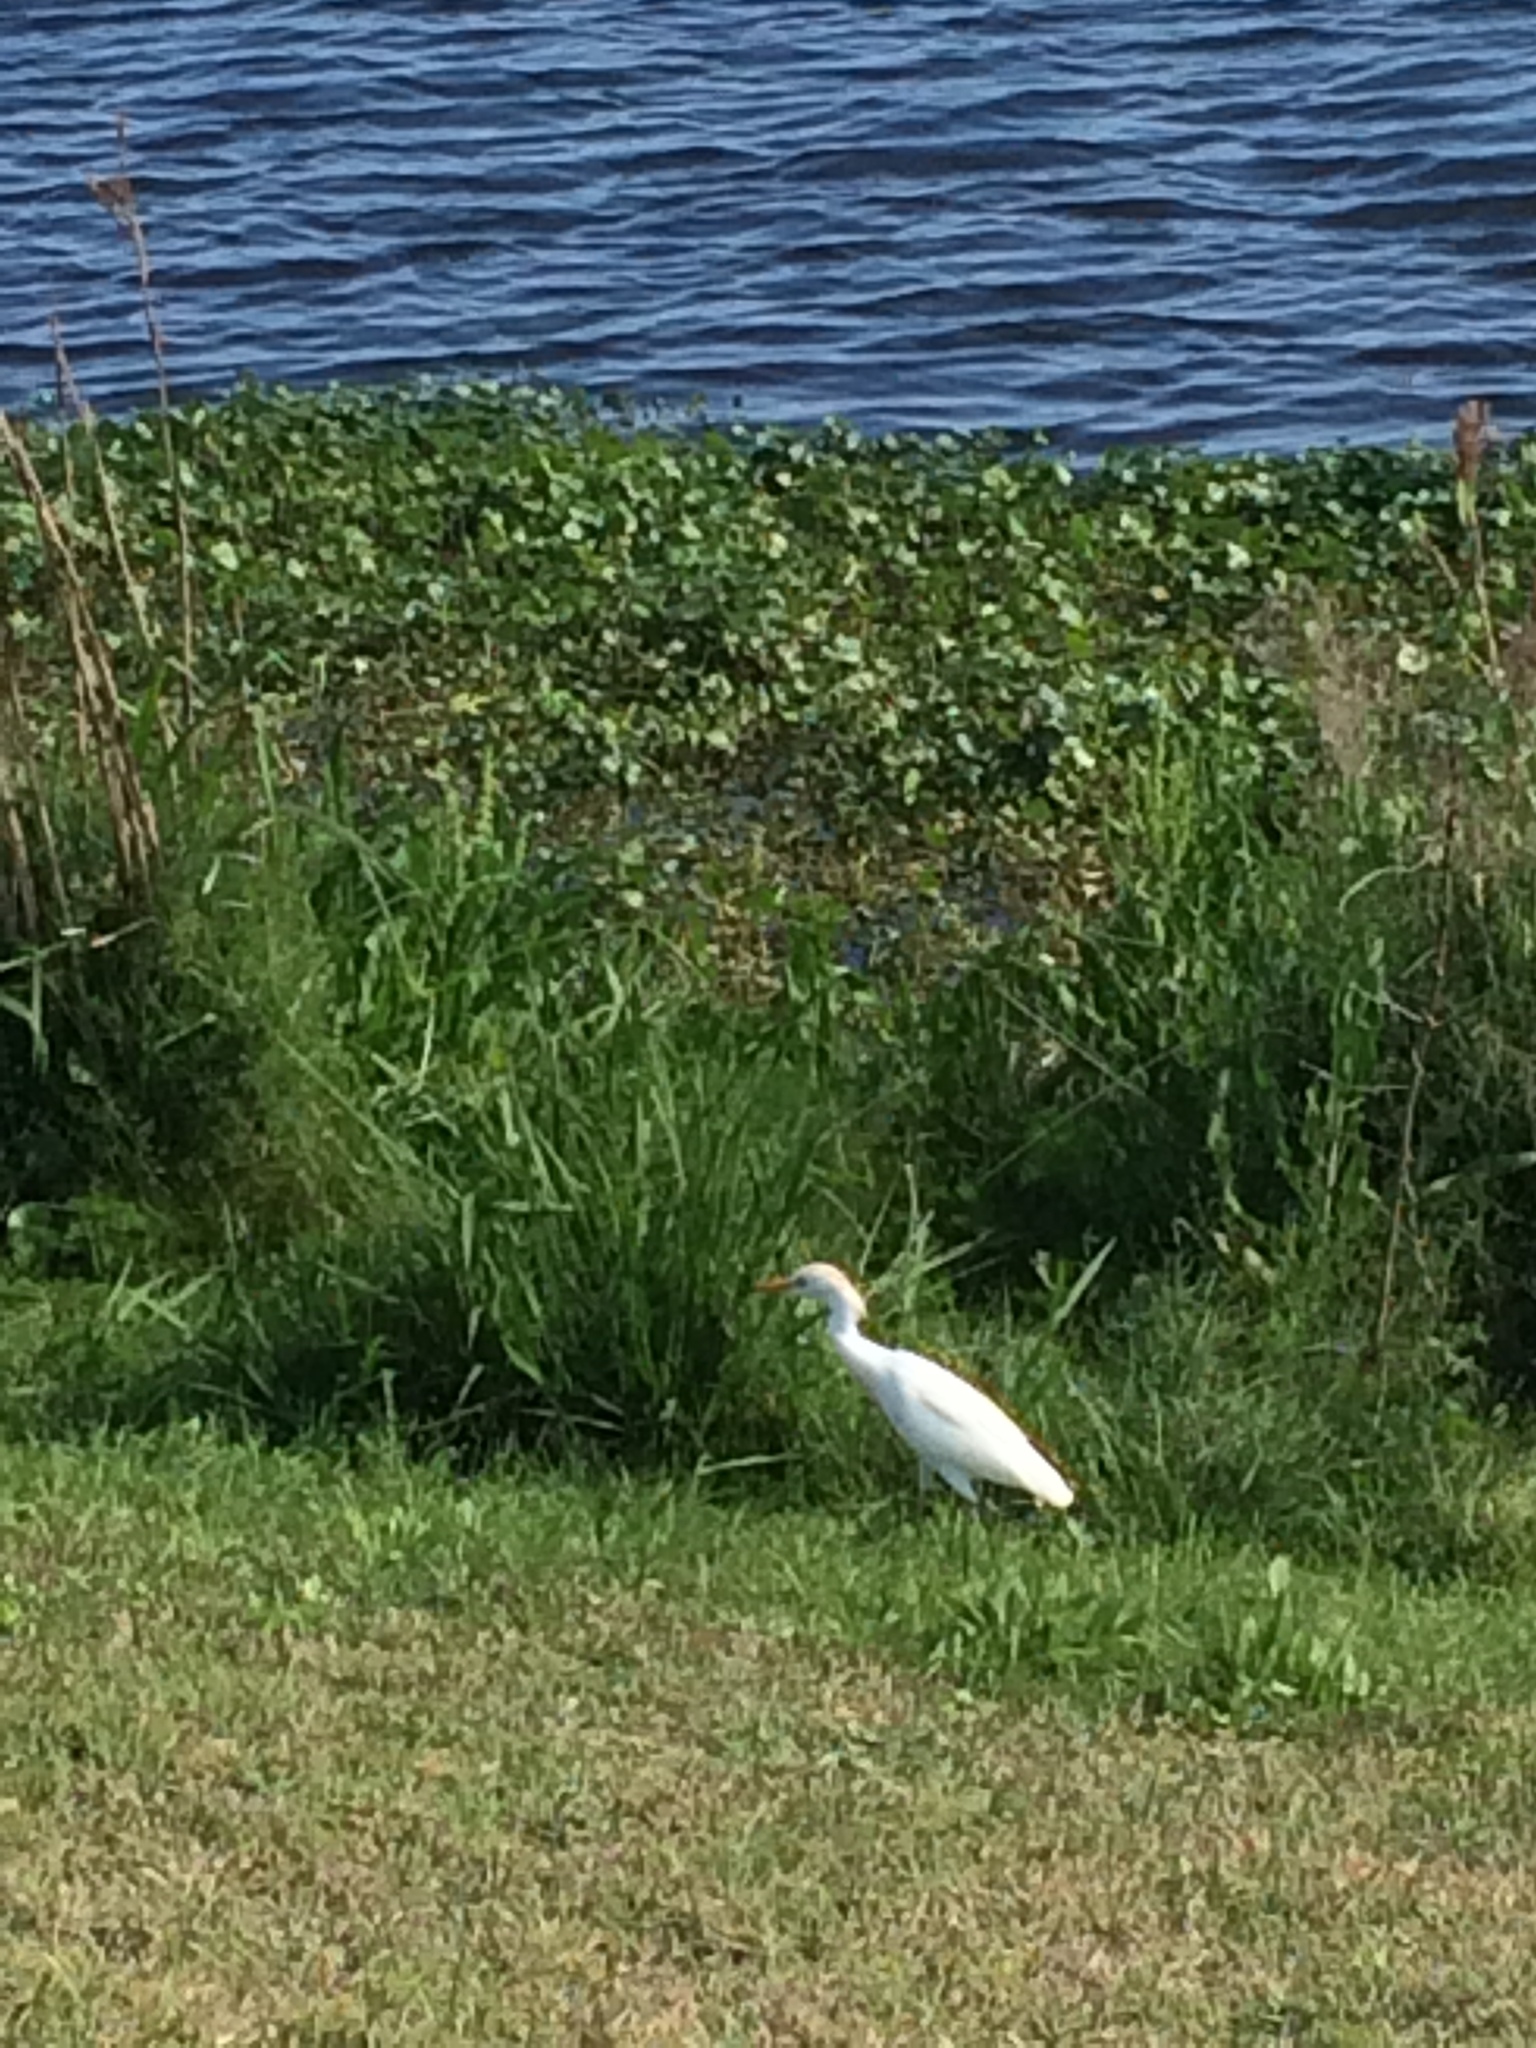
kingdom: Animalia
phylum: Chordata
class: Aves
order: Pelecaniformes
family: Ardeidae
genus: Bubulcus
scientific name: Bubulcus ibis
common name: Cattle egret
